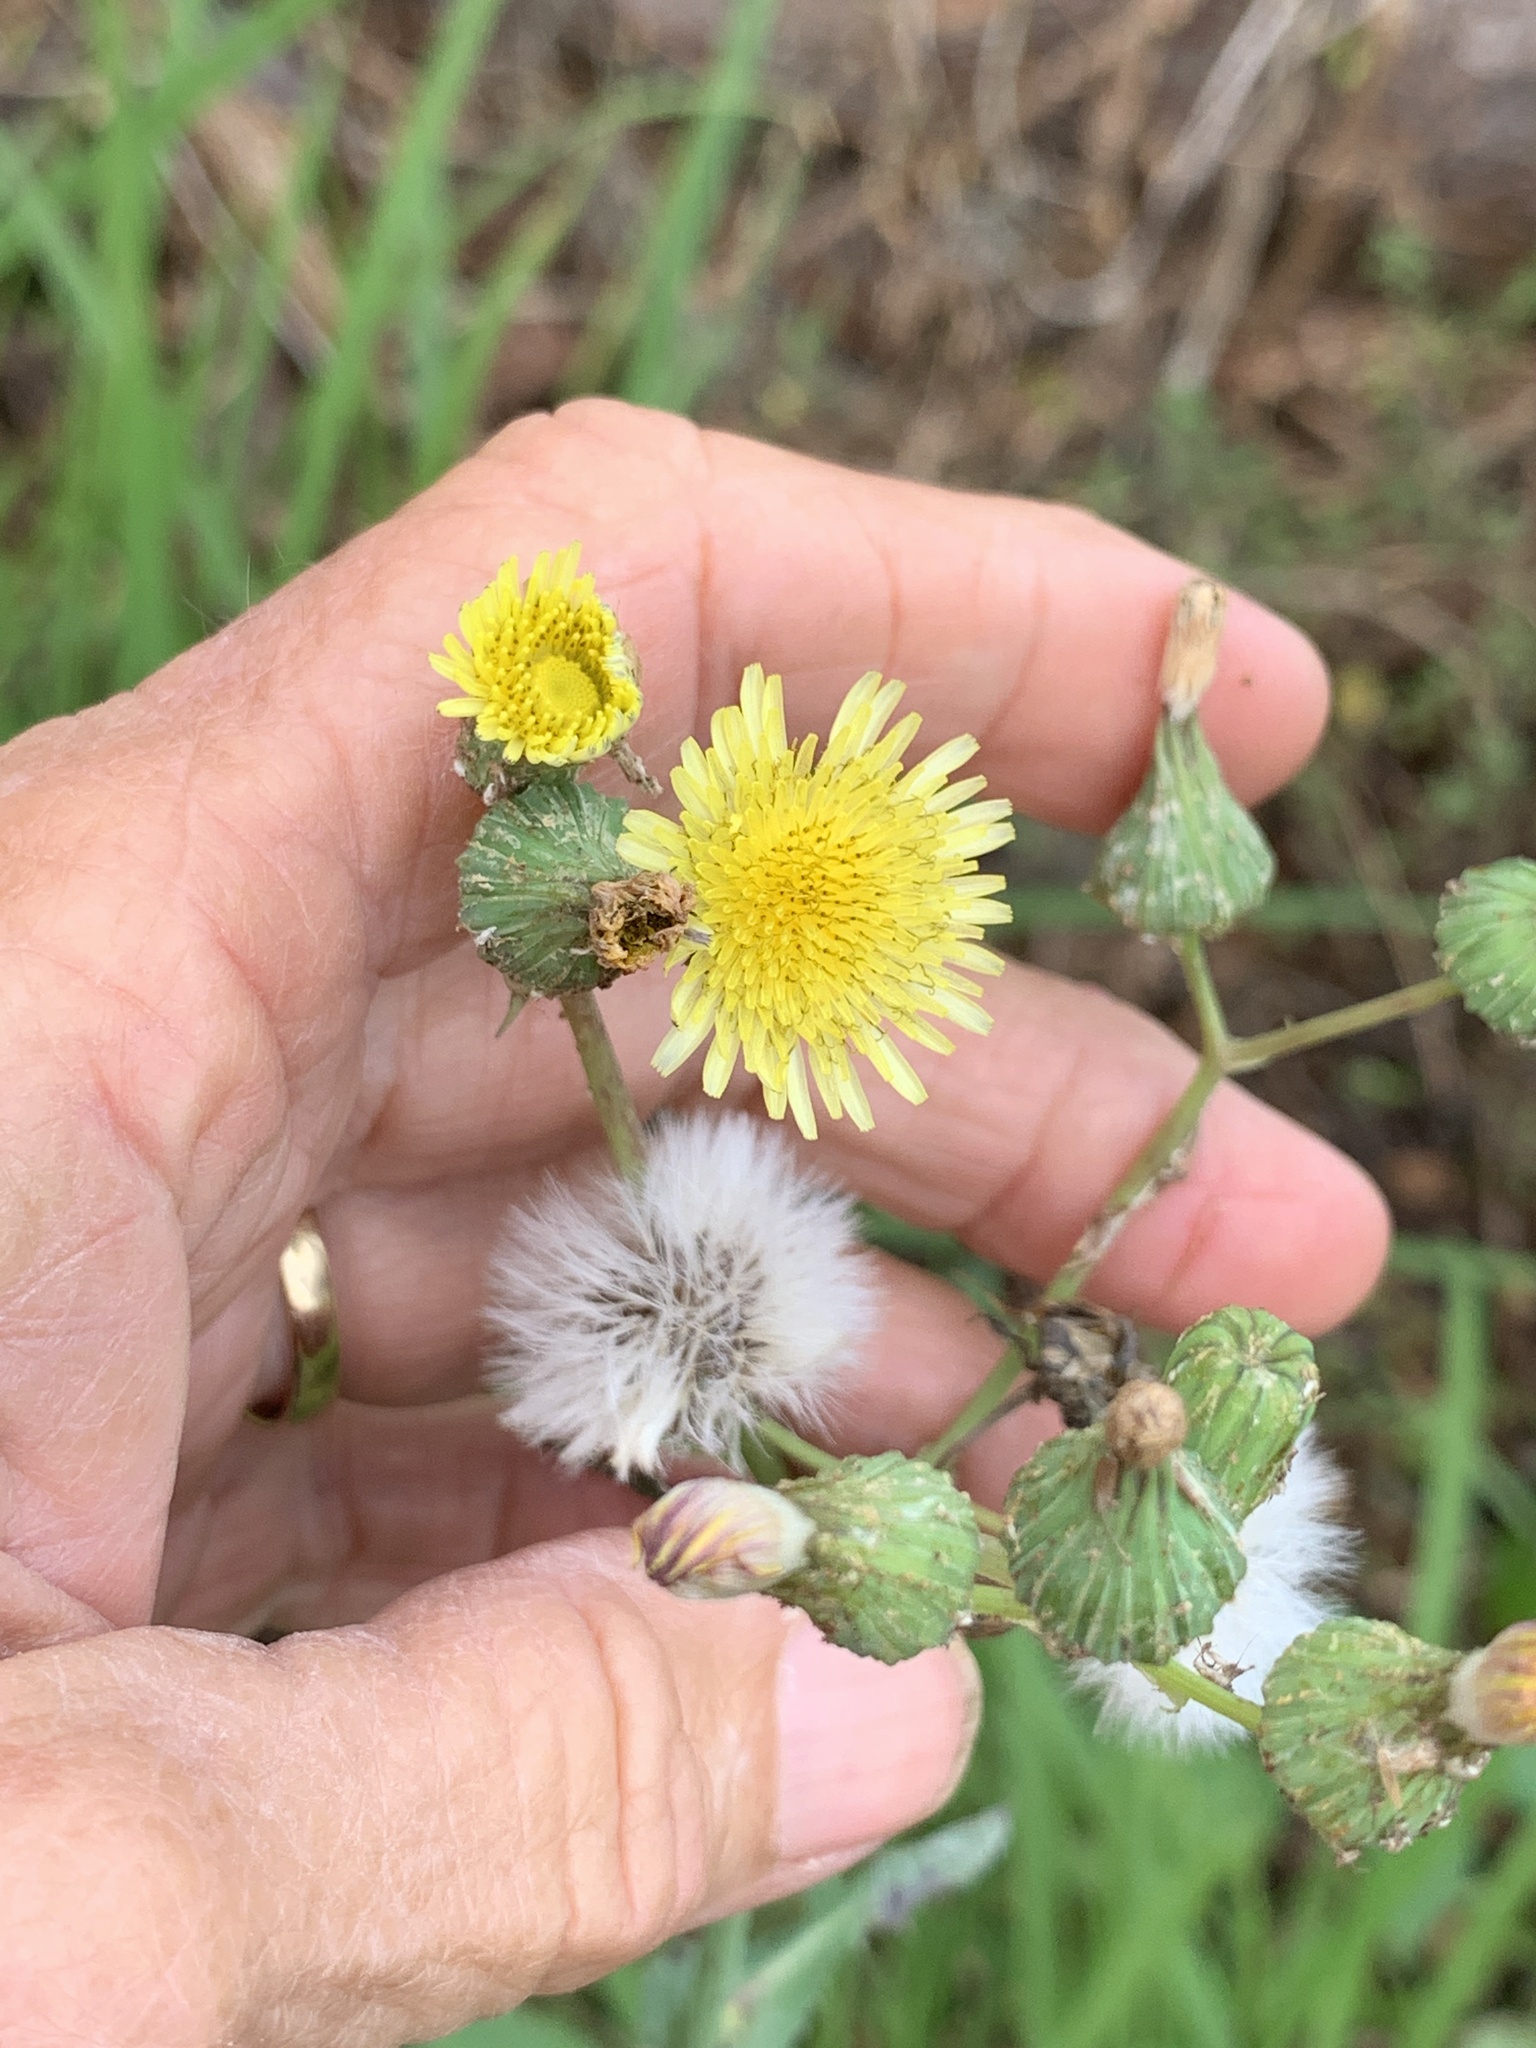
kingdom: Plantae
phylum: Tracheophyta
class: Magnoliopsida
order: Asterales
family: Asteraceae
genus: Sonchus
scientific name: Sonchus asper
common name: Prickly sow-thistle
